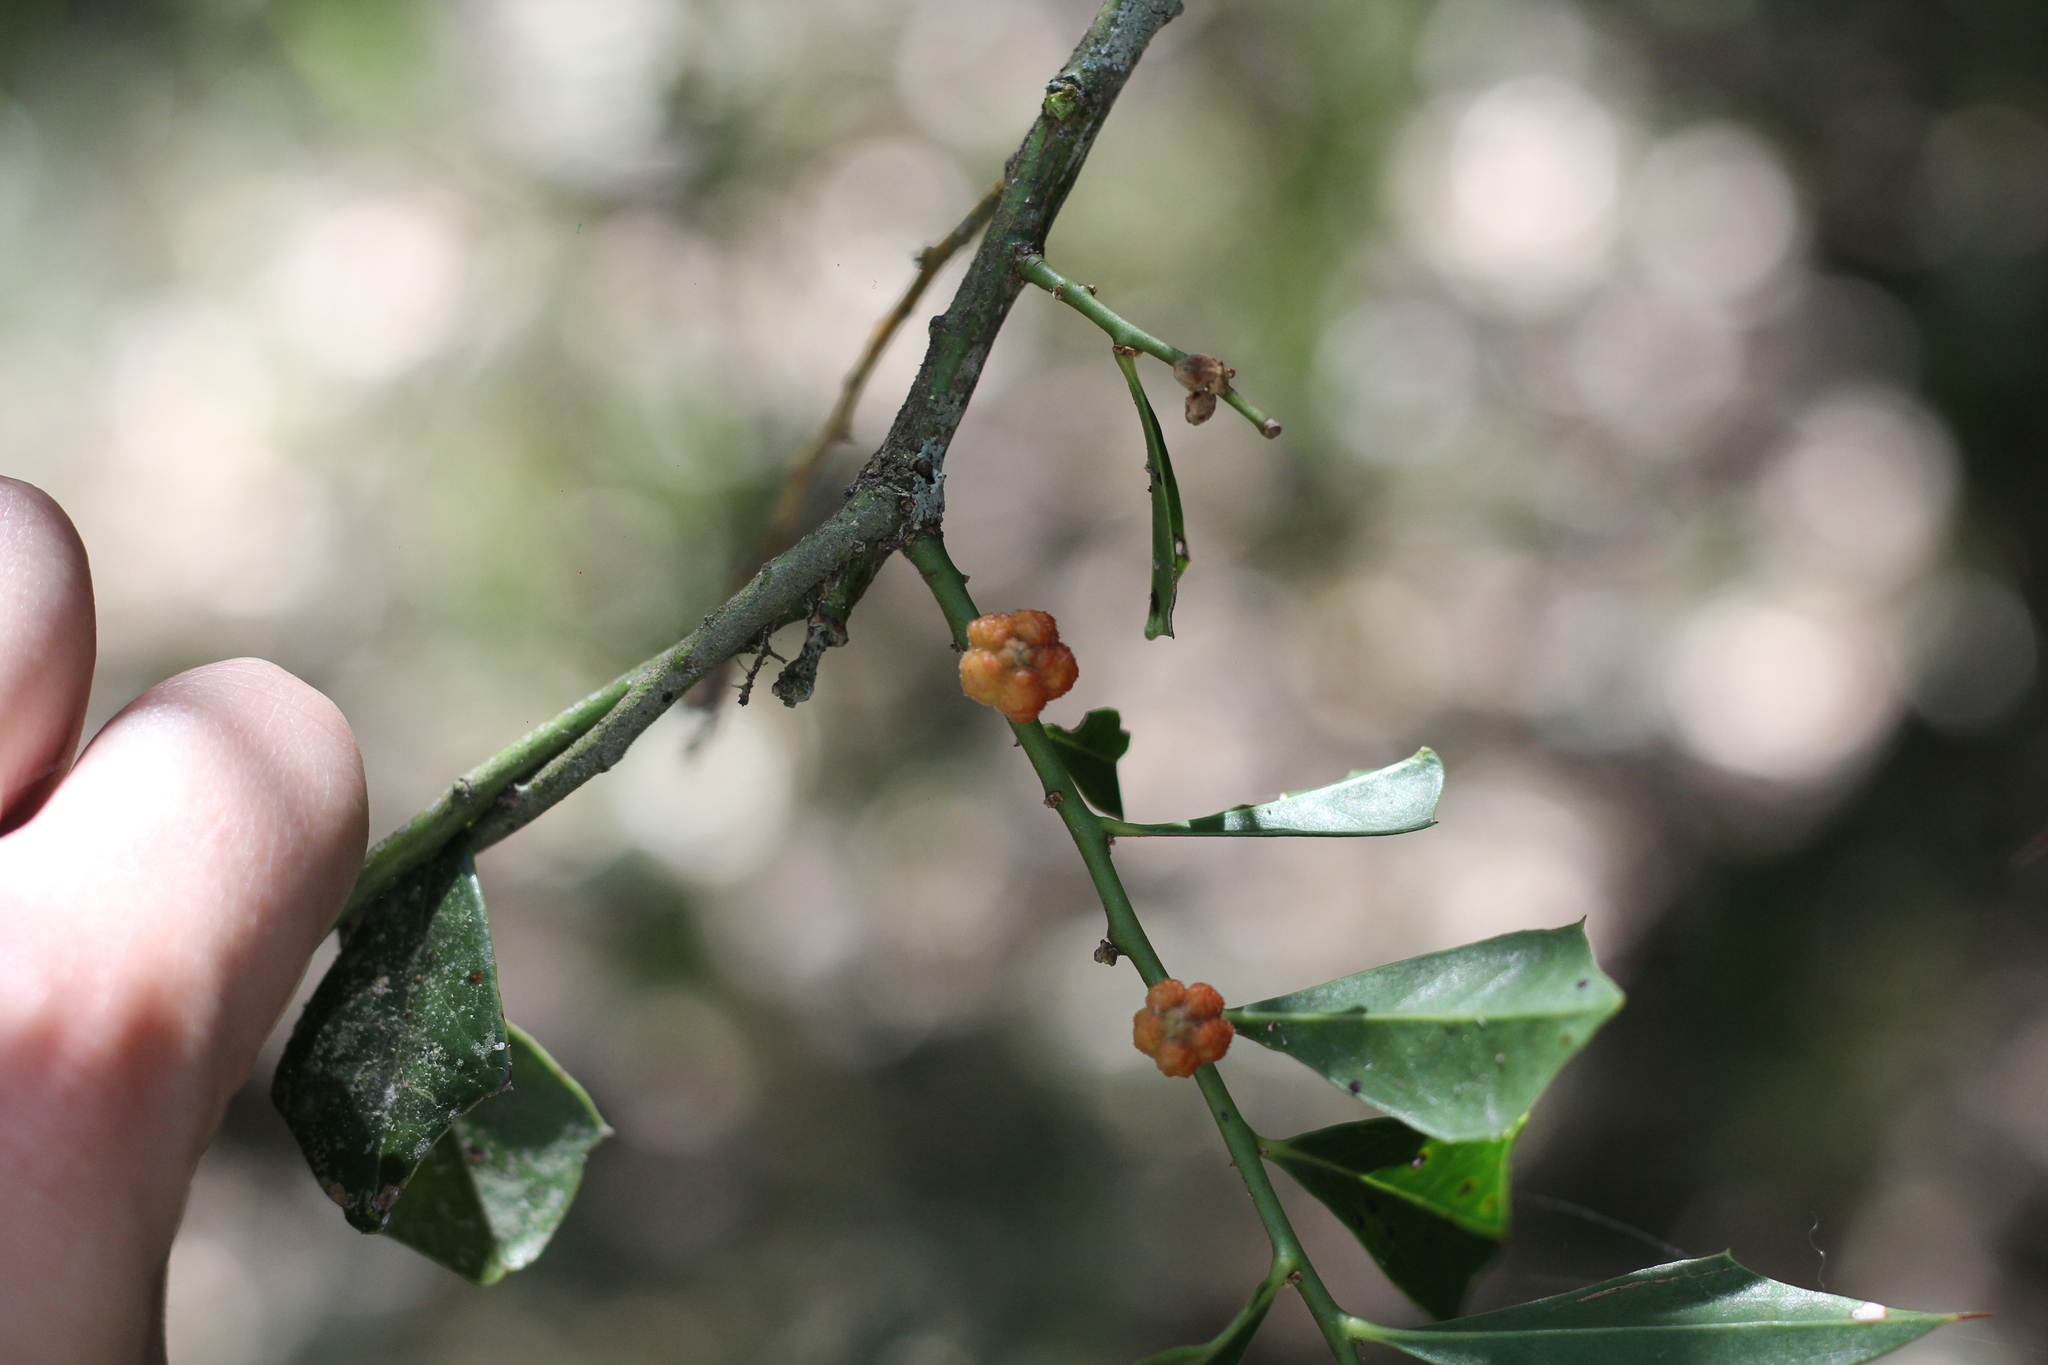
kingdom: Plantae
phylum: Tracheophyta
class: Magnoliopsida
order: Santalales
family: Cervantesiaceae
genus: Jodina
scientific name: Jodina rhombifolia
